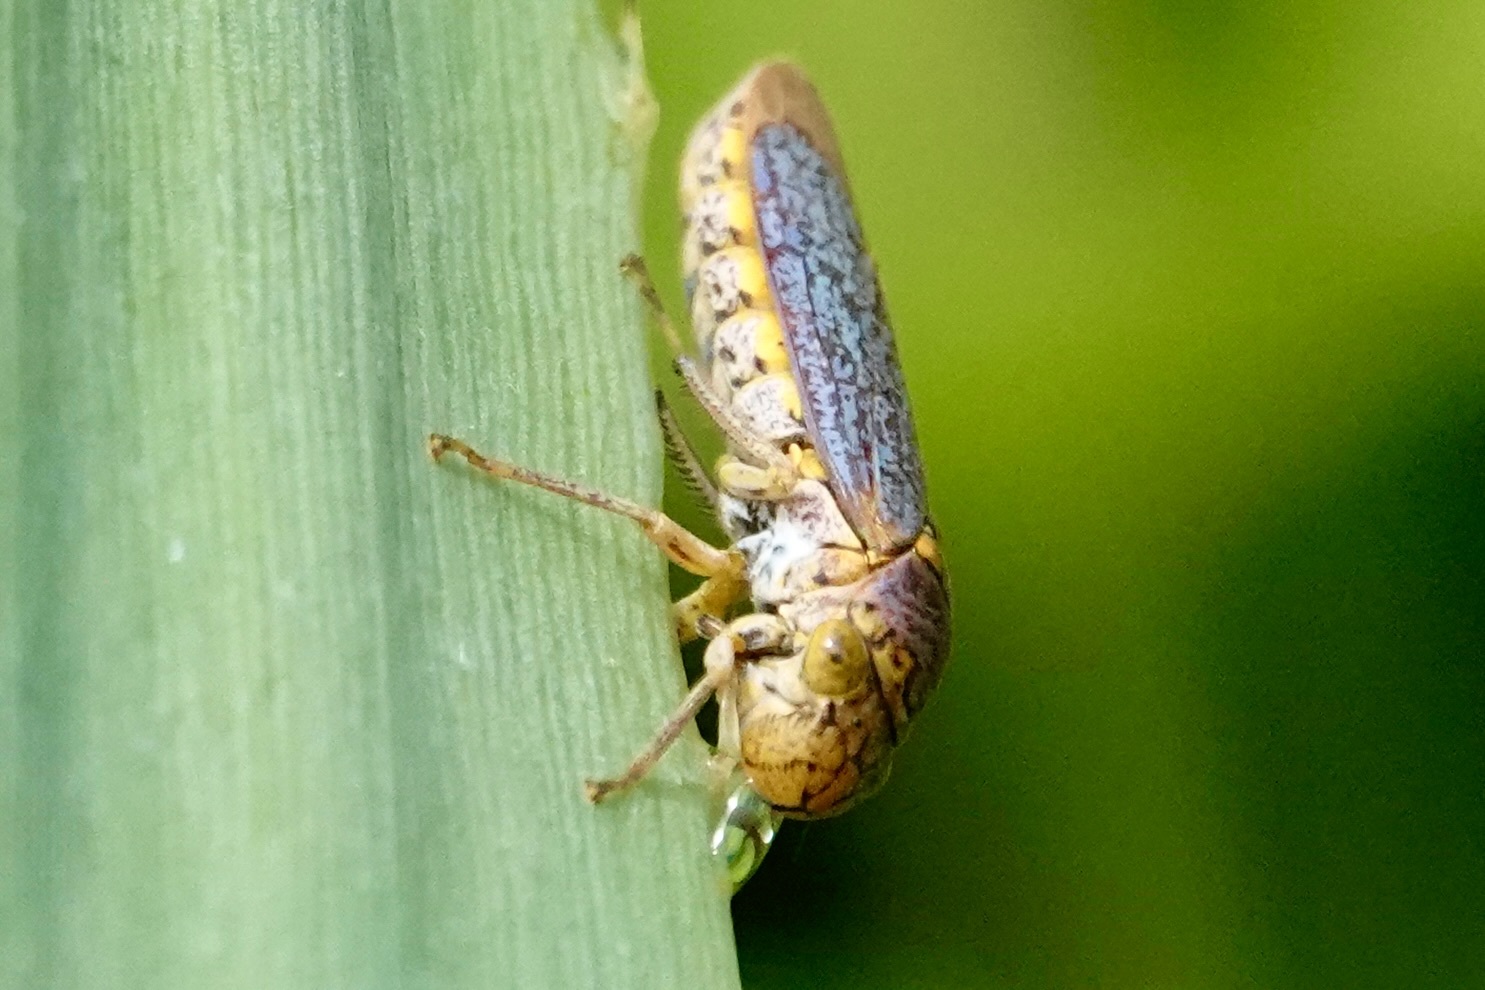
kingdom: Animalia
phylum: Arthropoda
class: Insecta
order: Hemiptera
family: Cicadellidae
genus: Oncometopia
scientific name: Oncometopia orbona
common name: Broad-headed sharpshooter
